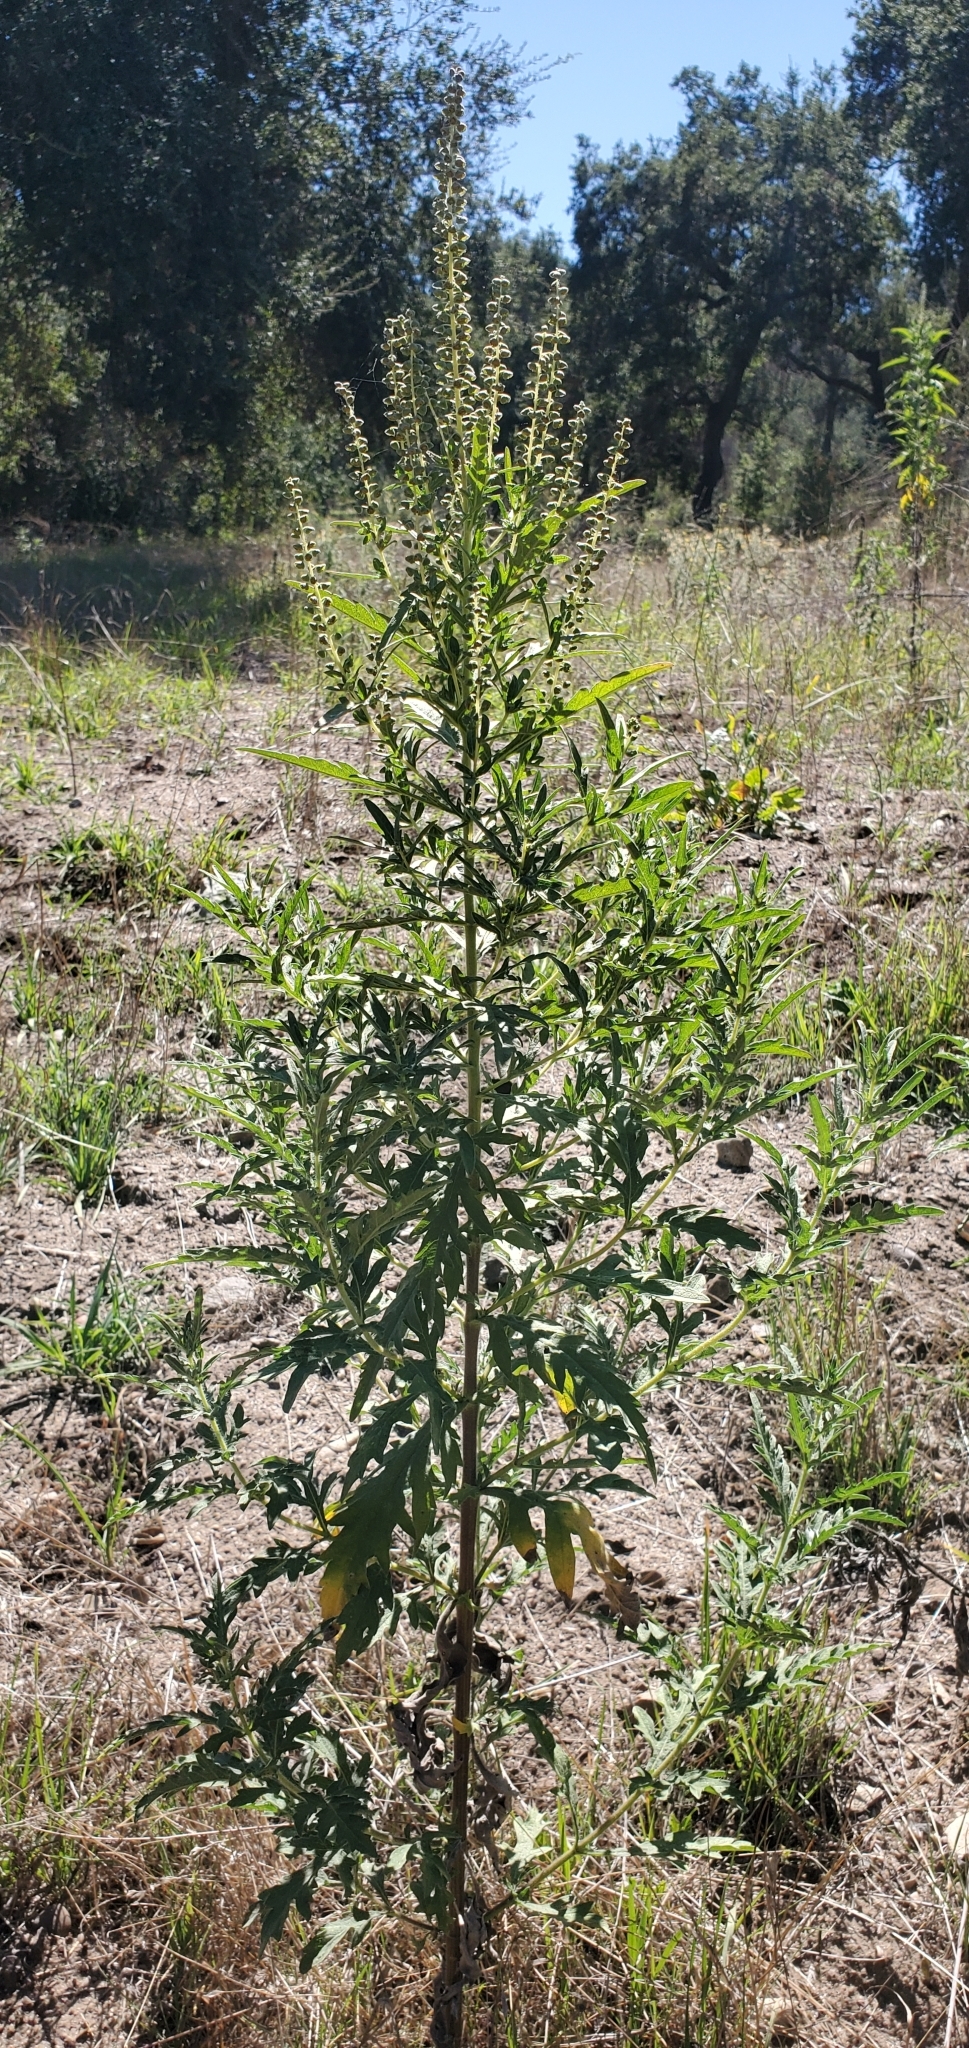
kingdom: Plantae
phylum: Tracheophyta
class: Magnoliopsida
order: Asterales
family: Asteraceae
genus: Ambrosia
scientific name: Ambrosia psilostachya
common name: Perennial ragweed
